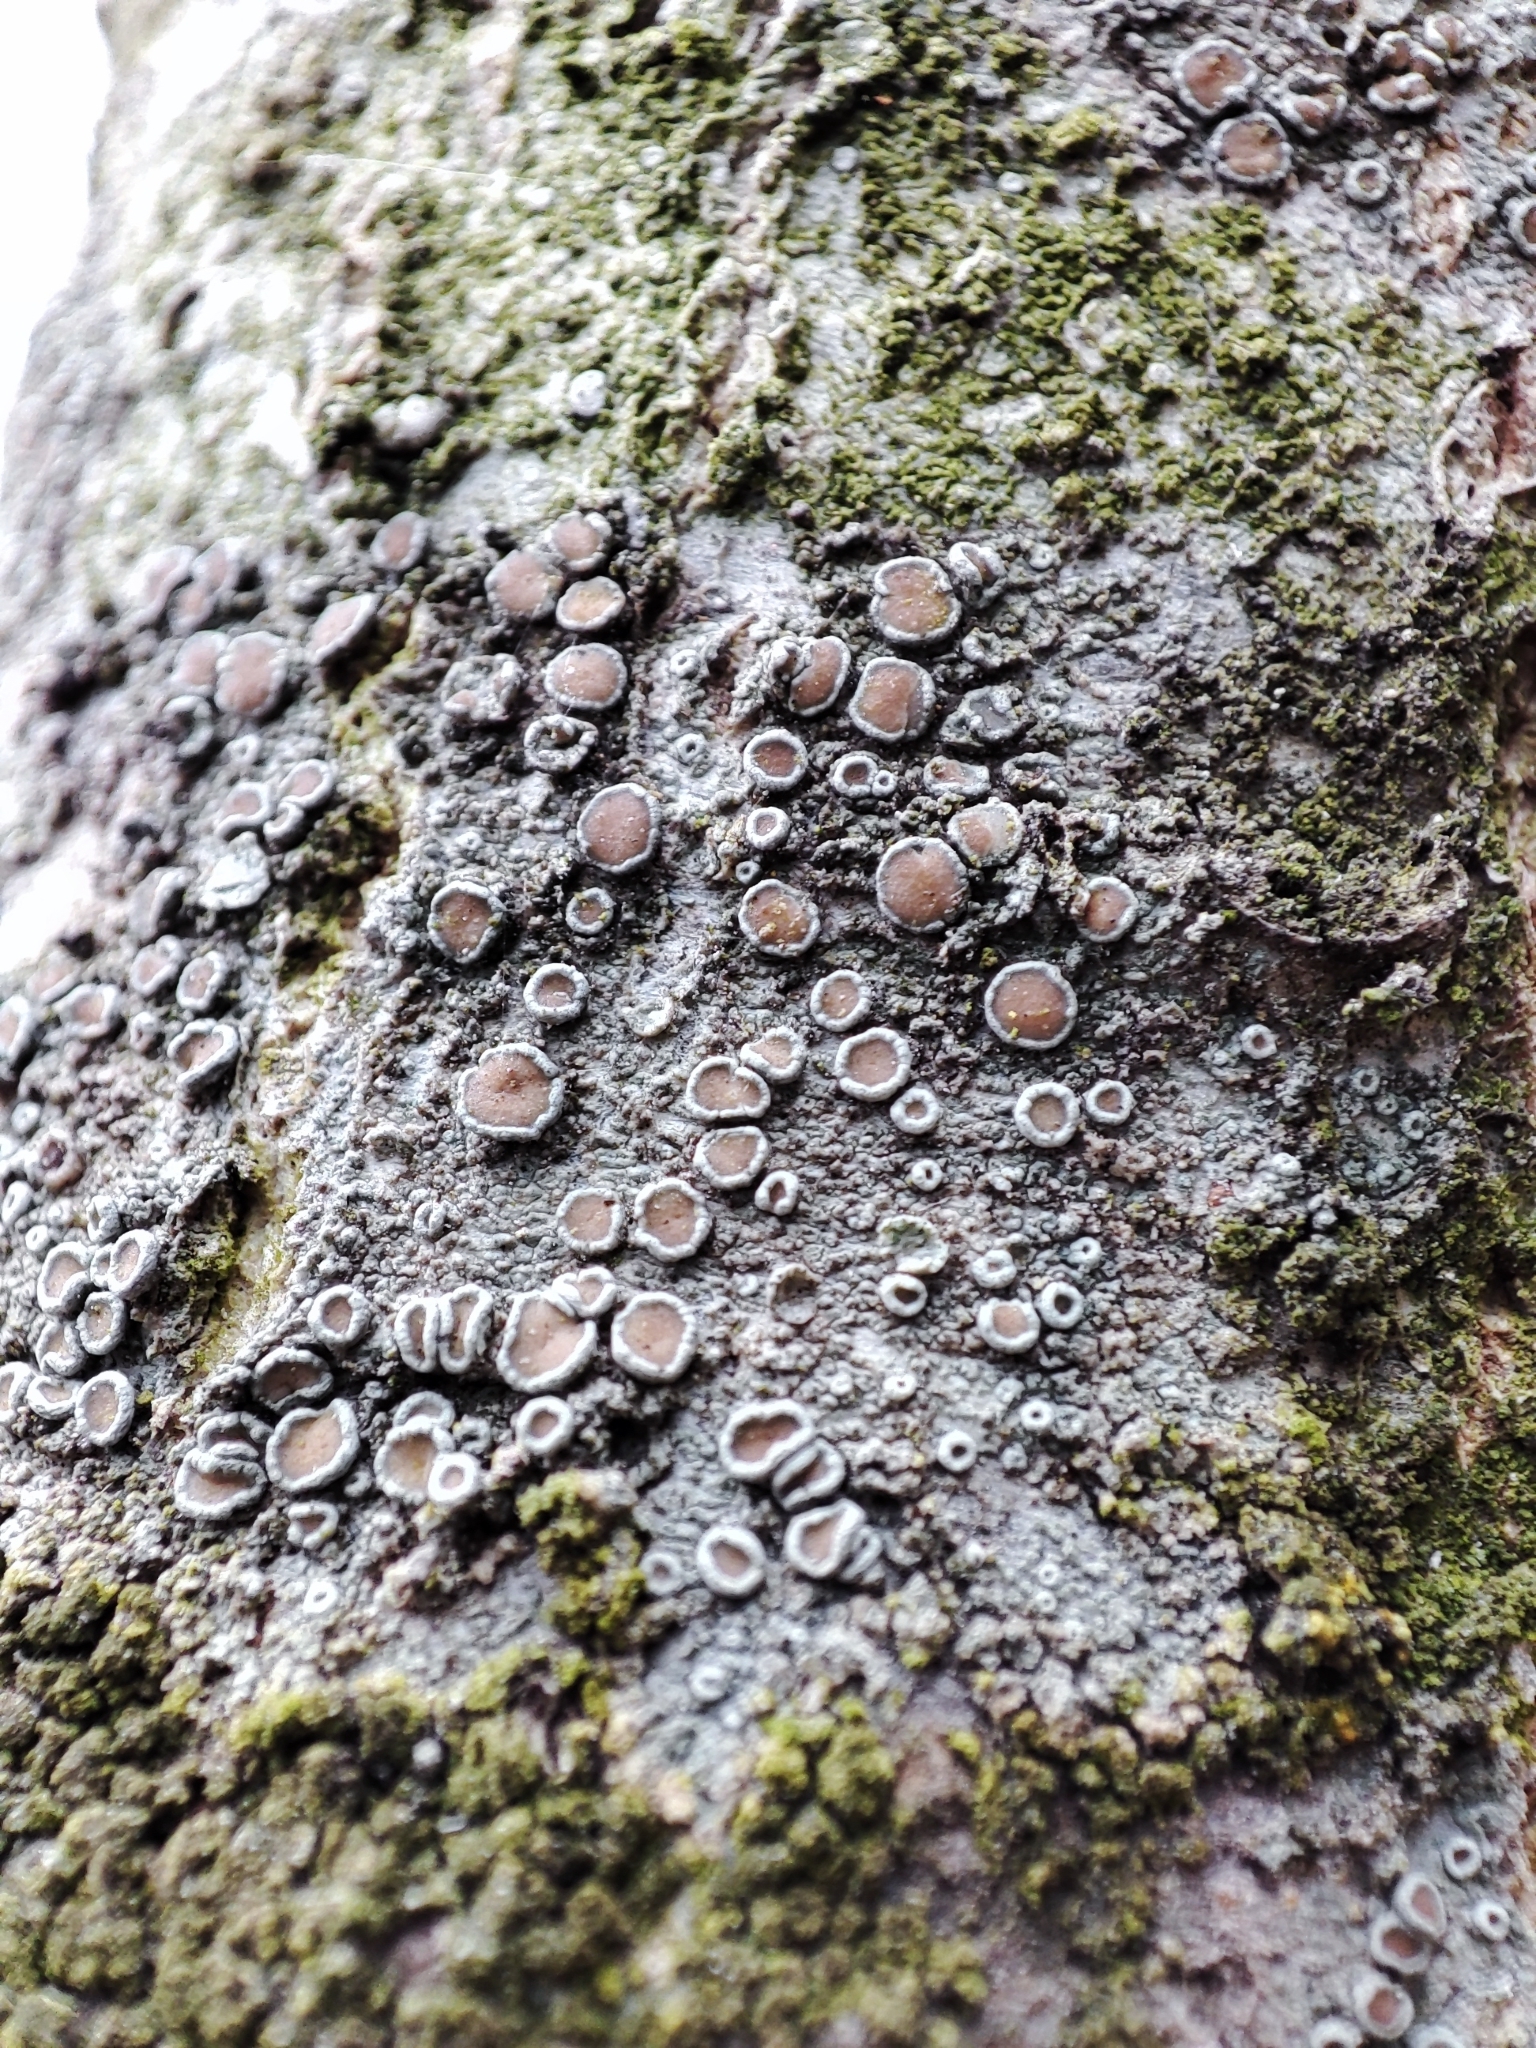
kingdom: Fungi
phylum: Ascomycota
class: Lecanoromycetes
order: Lecanorales
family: Lecanoraceae
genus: Lecanora
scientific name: Lecanora chlarotera
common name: Brown rim-lichen
